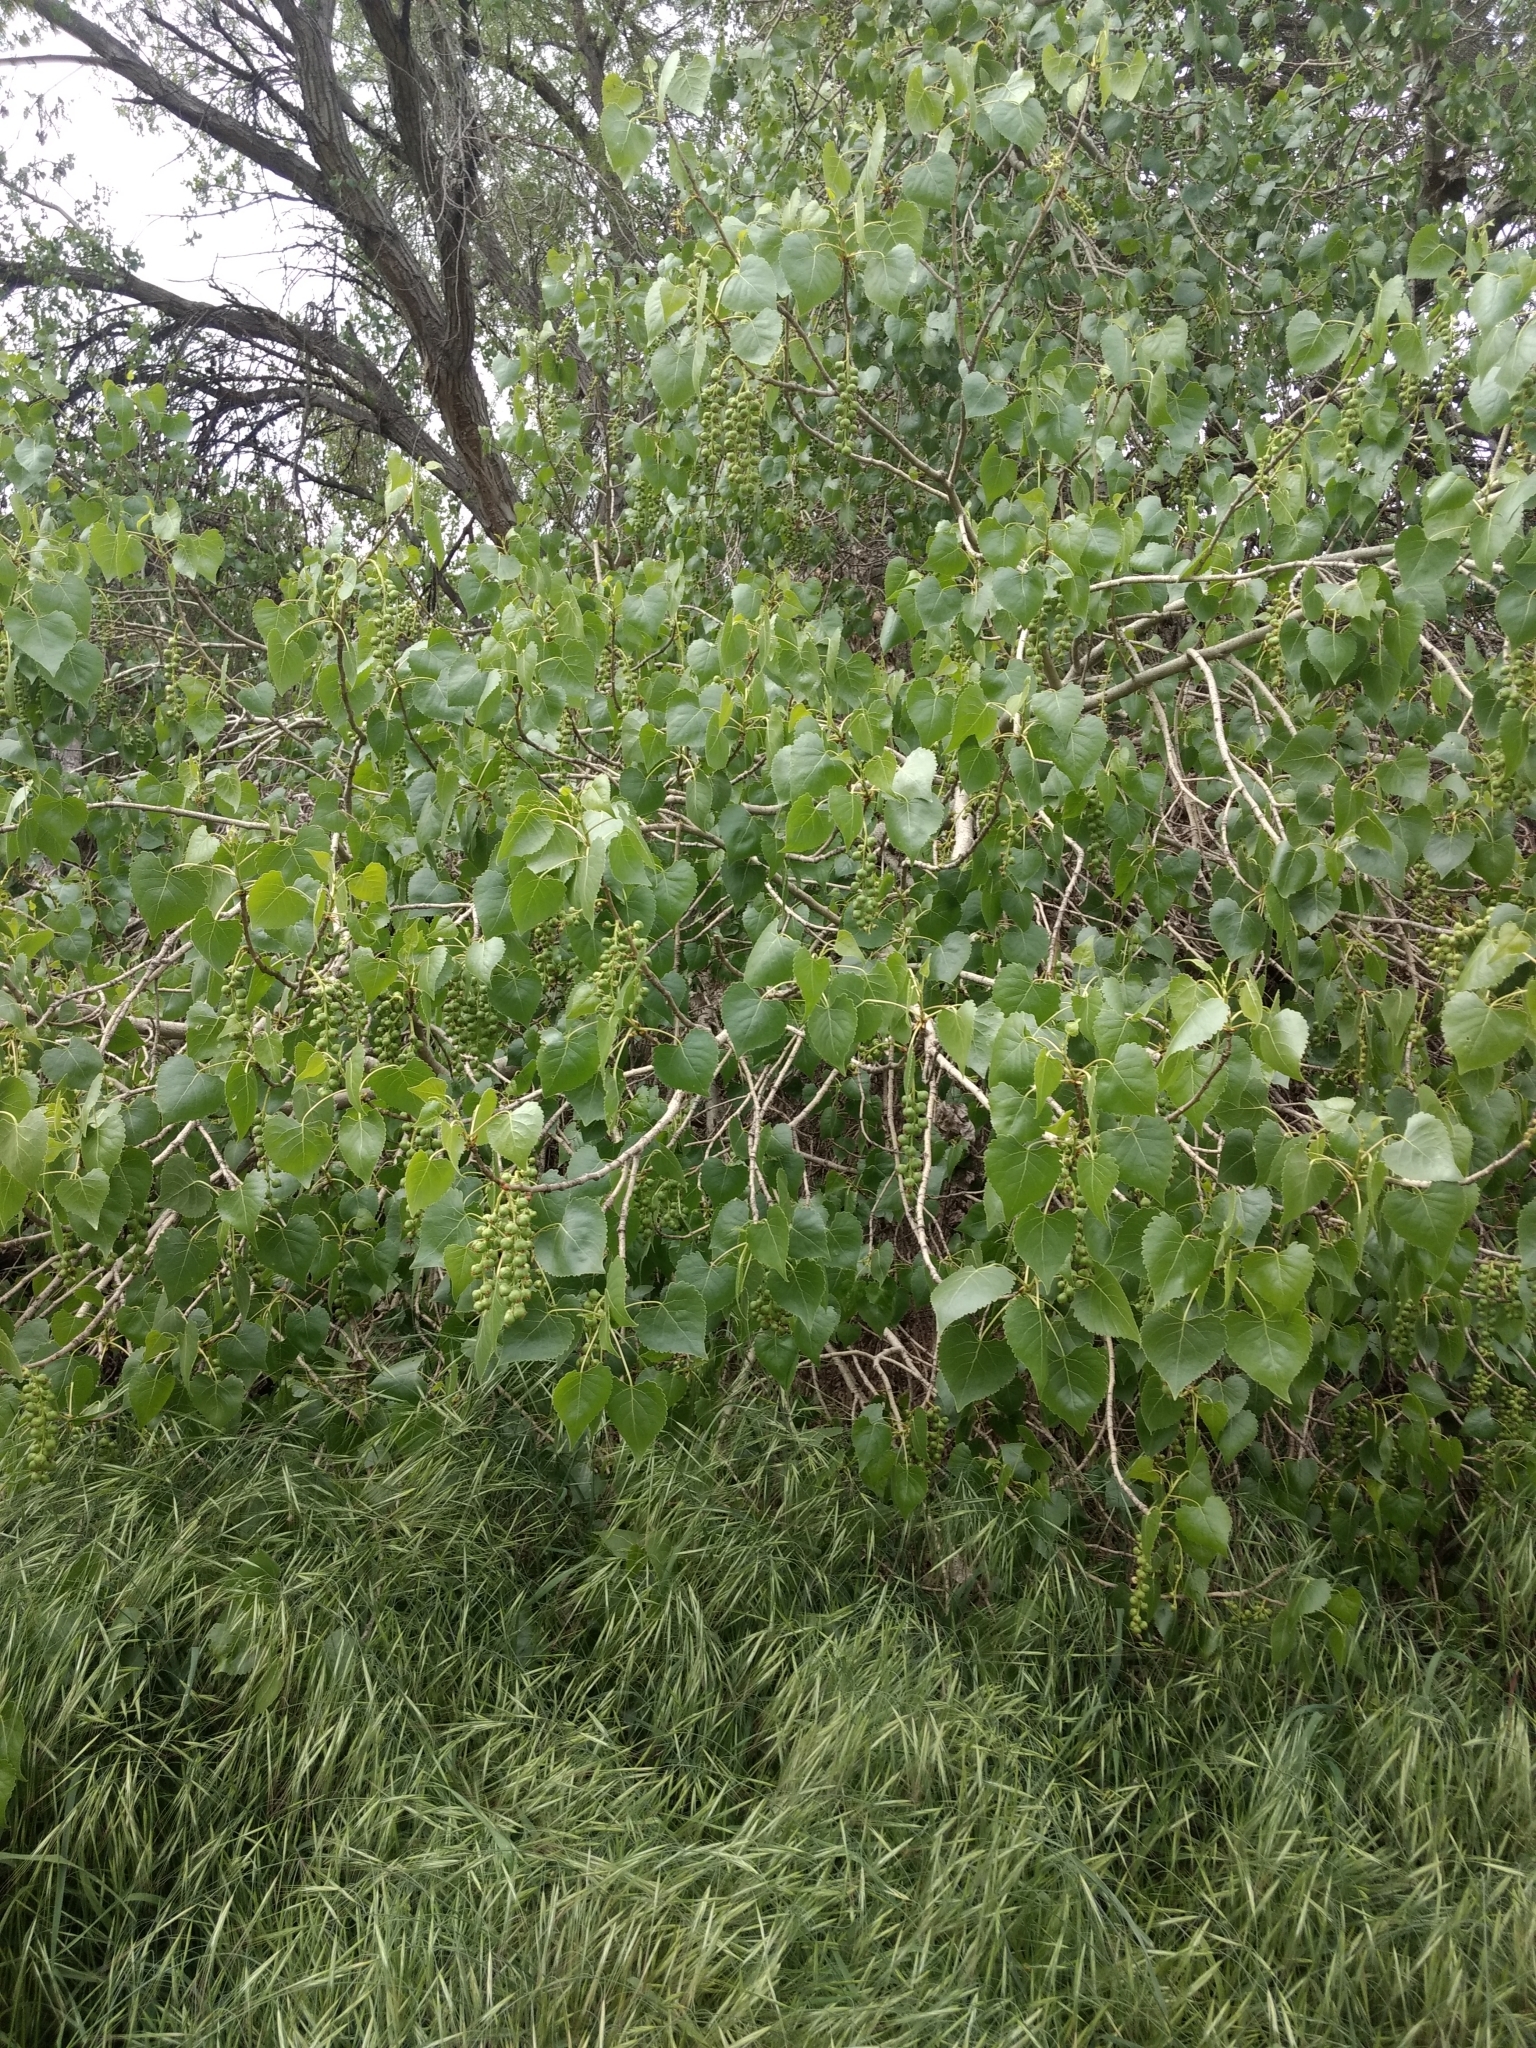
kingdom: Plantae
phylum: Tracheophyta
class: Magnoliopsida
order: Malpighiales
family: Salicaceae
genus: Populus
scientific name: Populus fremontii
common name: Fremont's cottonwood
